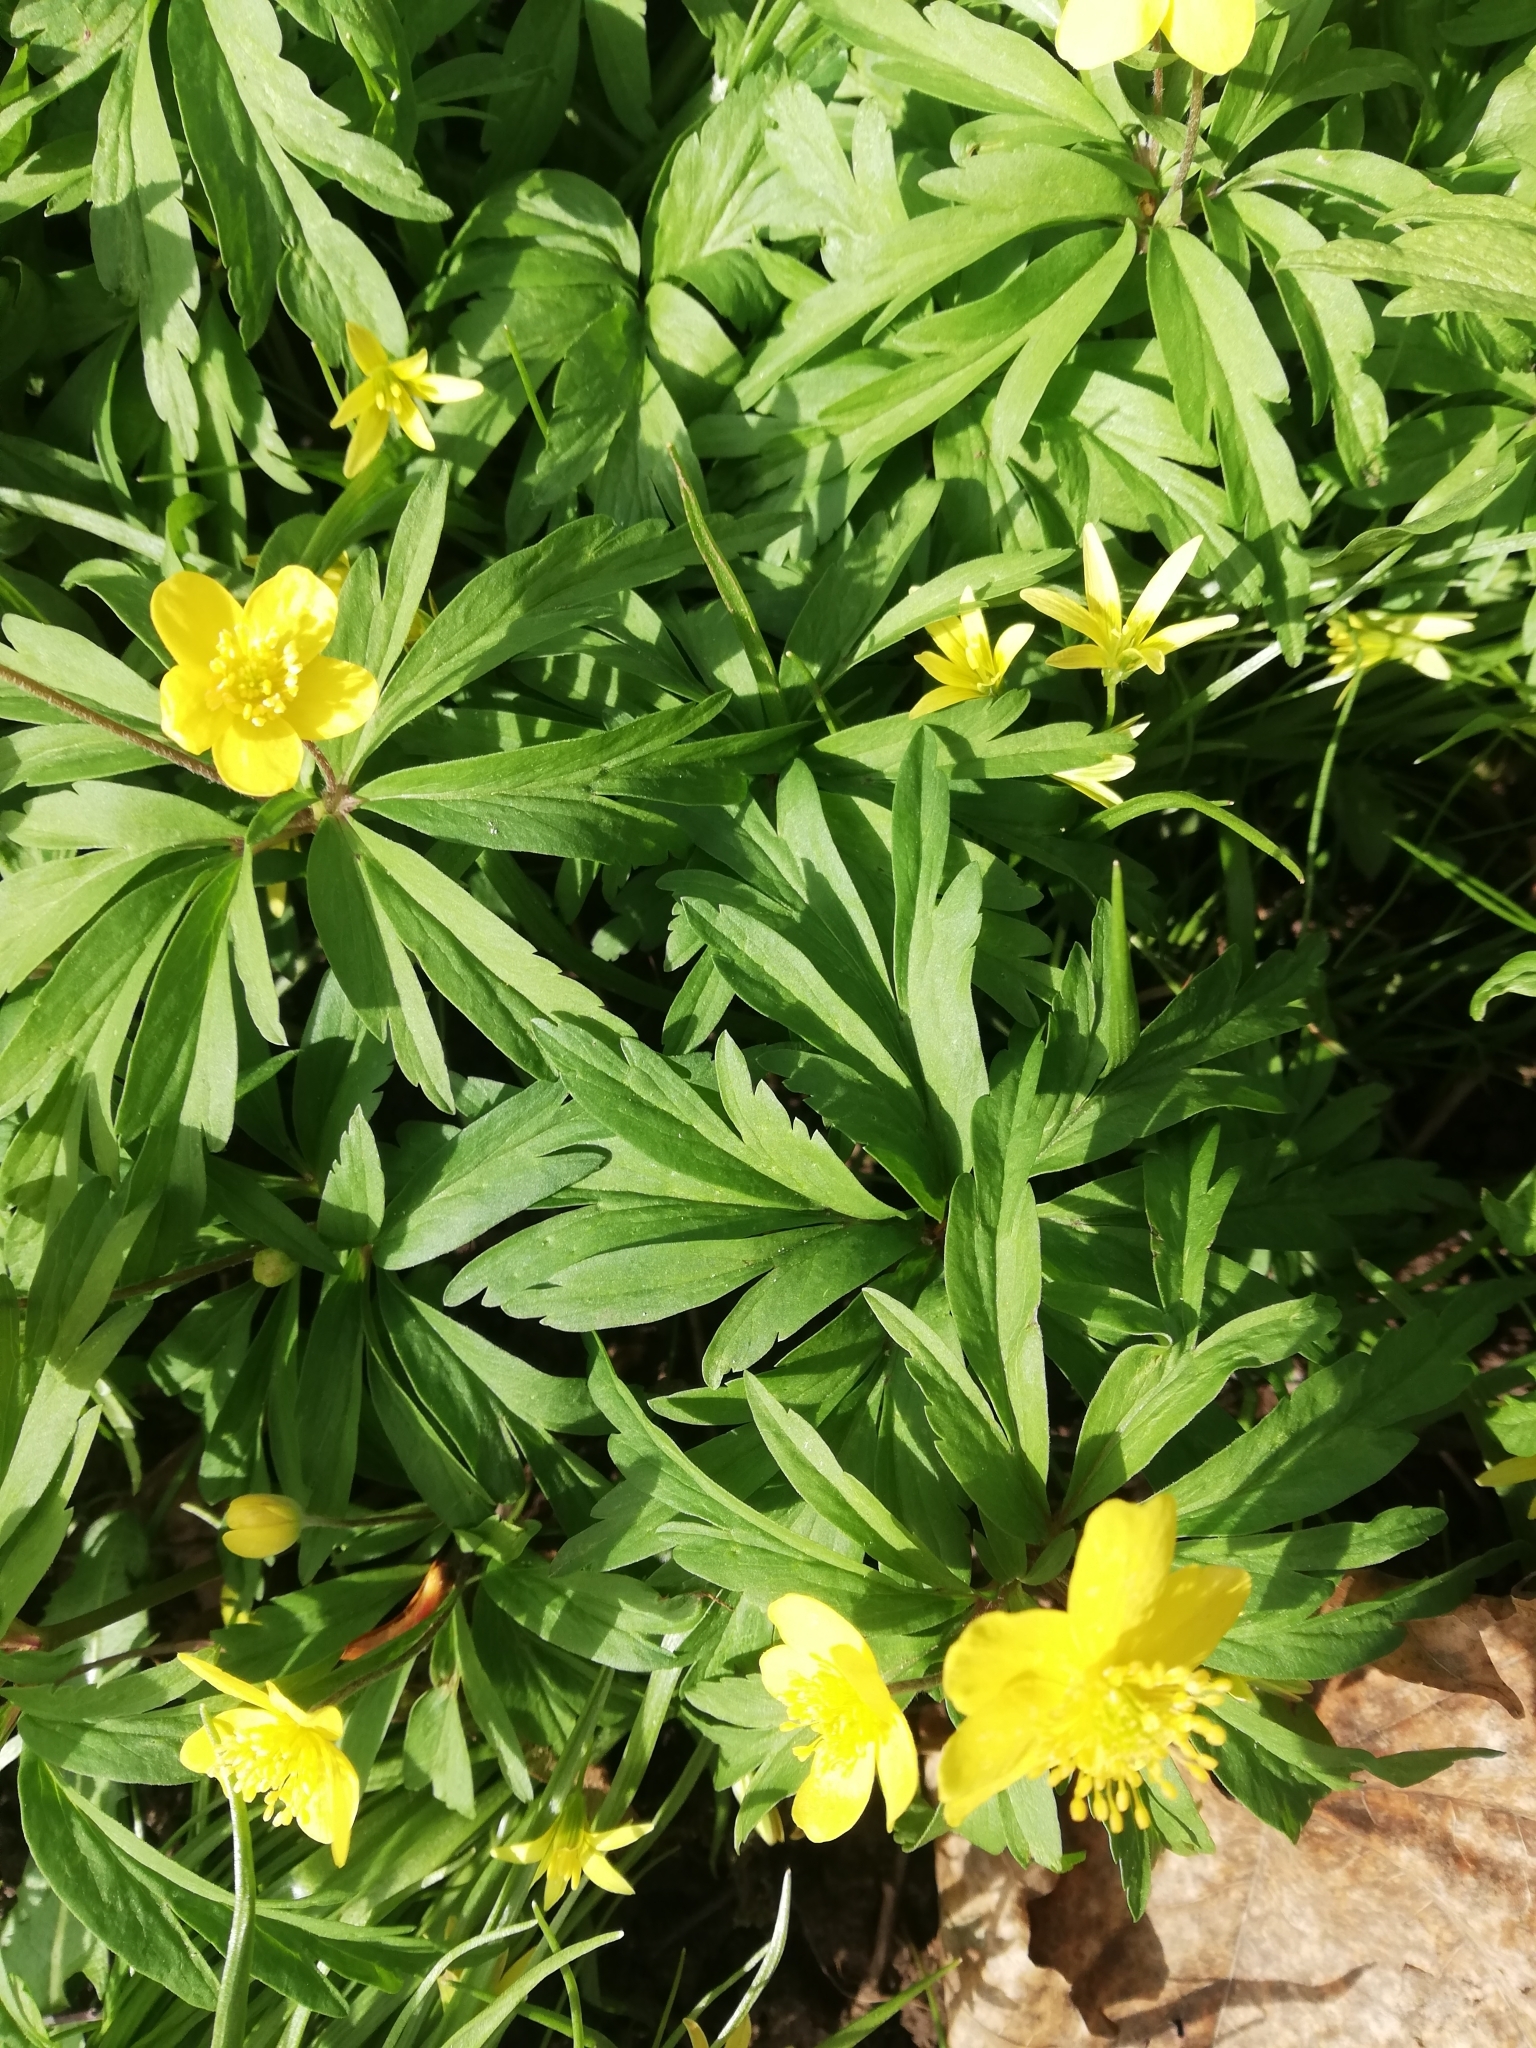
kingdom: Plantae
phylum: Tracheophyta
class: Magnoliopsida
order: Ranunculales
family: Ranunculaceae
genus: Anemone
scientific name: Anemone ranunculoides
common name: Yellow anemone
